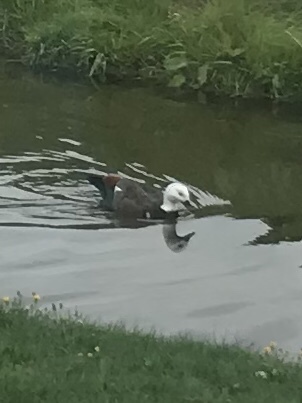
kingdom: Animalia
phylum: Chordata
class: Aves
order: Anseriformes
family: Anatidae
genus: Tadorna
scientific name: Tadorna variegata
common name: Paradise shelduck
